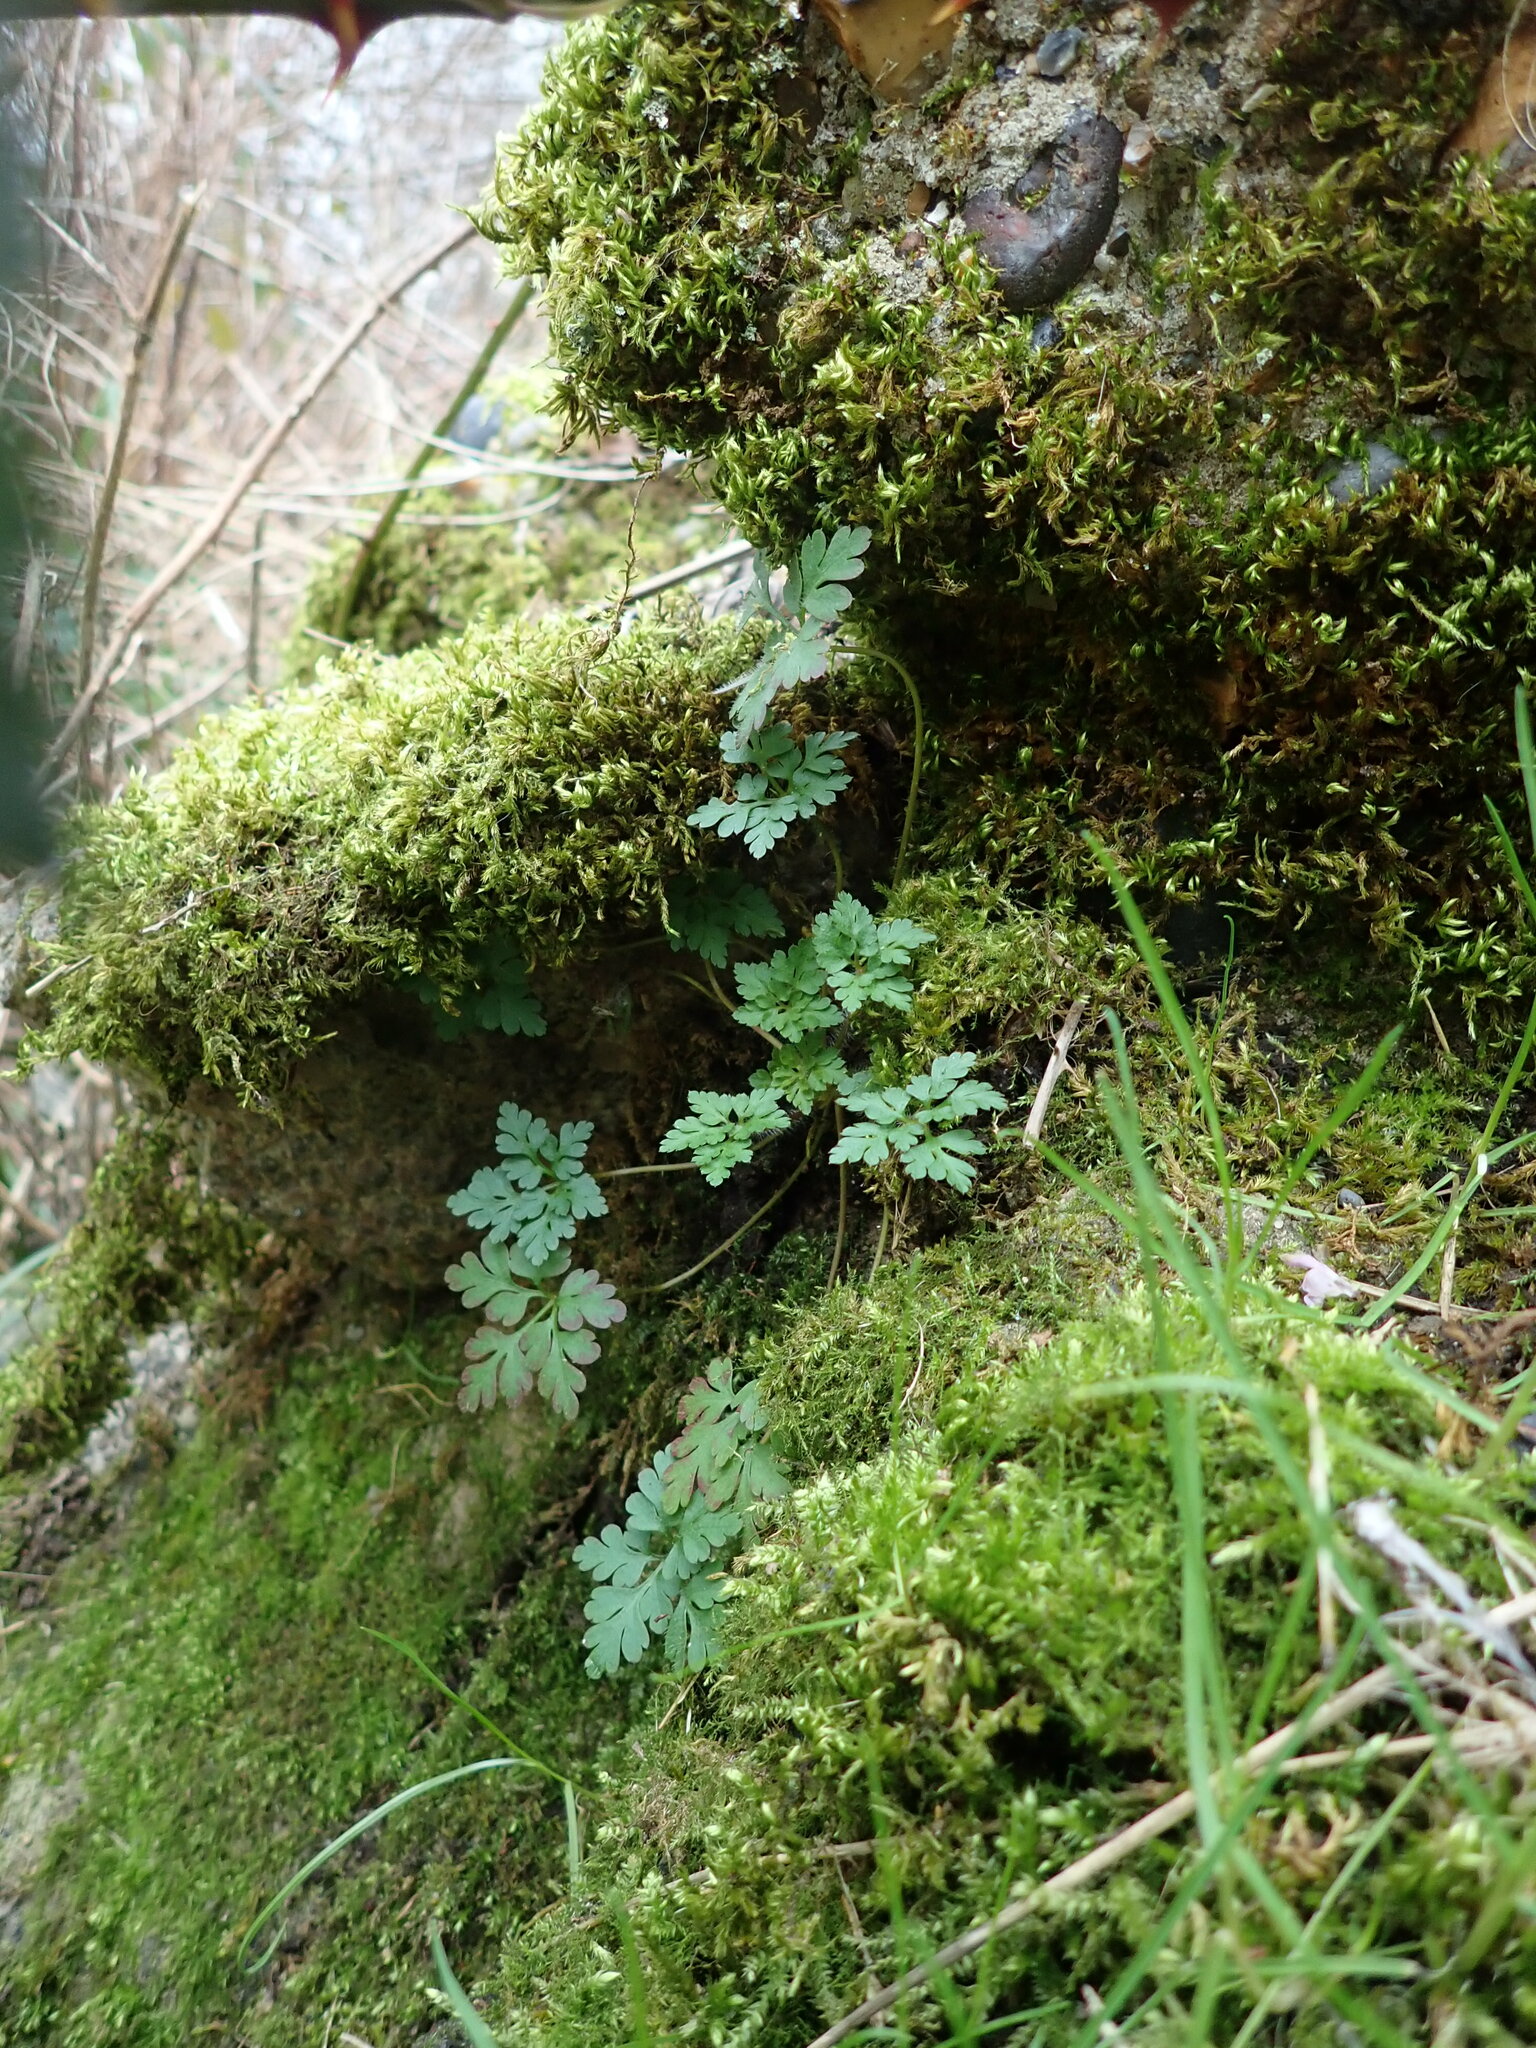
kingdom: Plantae
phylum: Tracheophyta
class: Magnoliopsida
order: Geraniales
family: Geraniaceae
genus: Geranium
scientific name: Geranium robertianum
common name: Herb-robert
